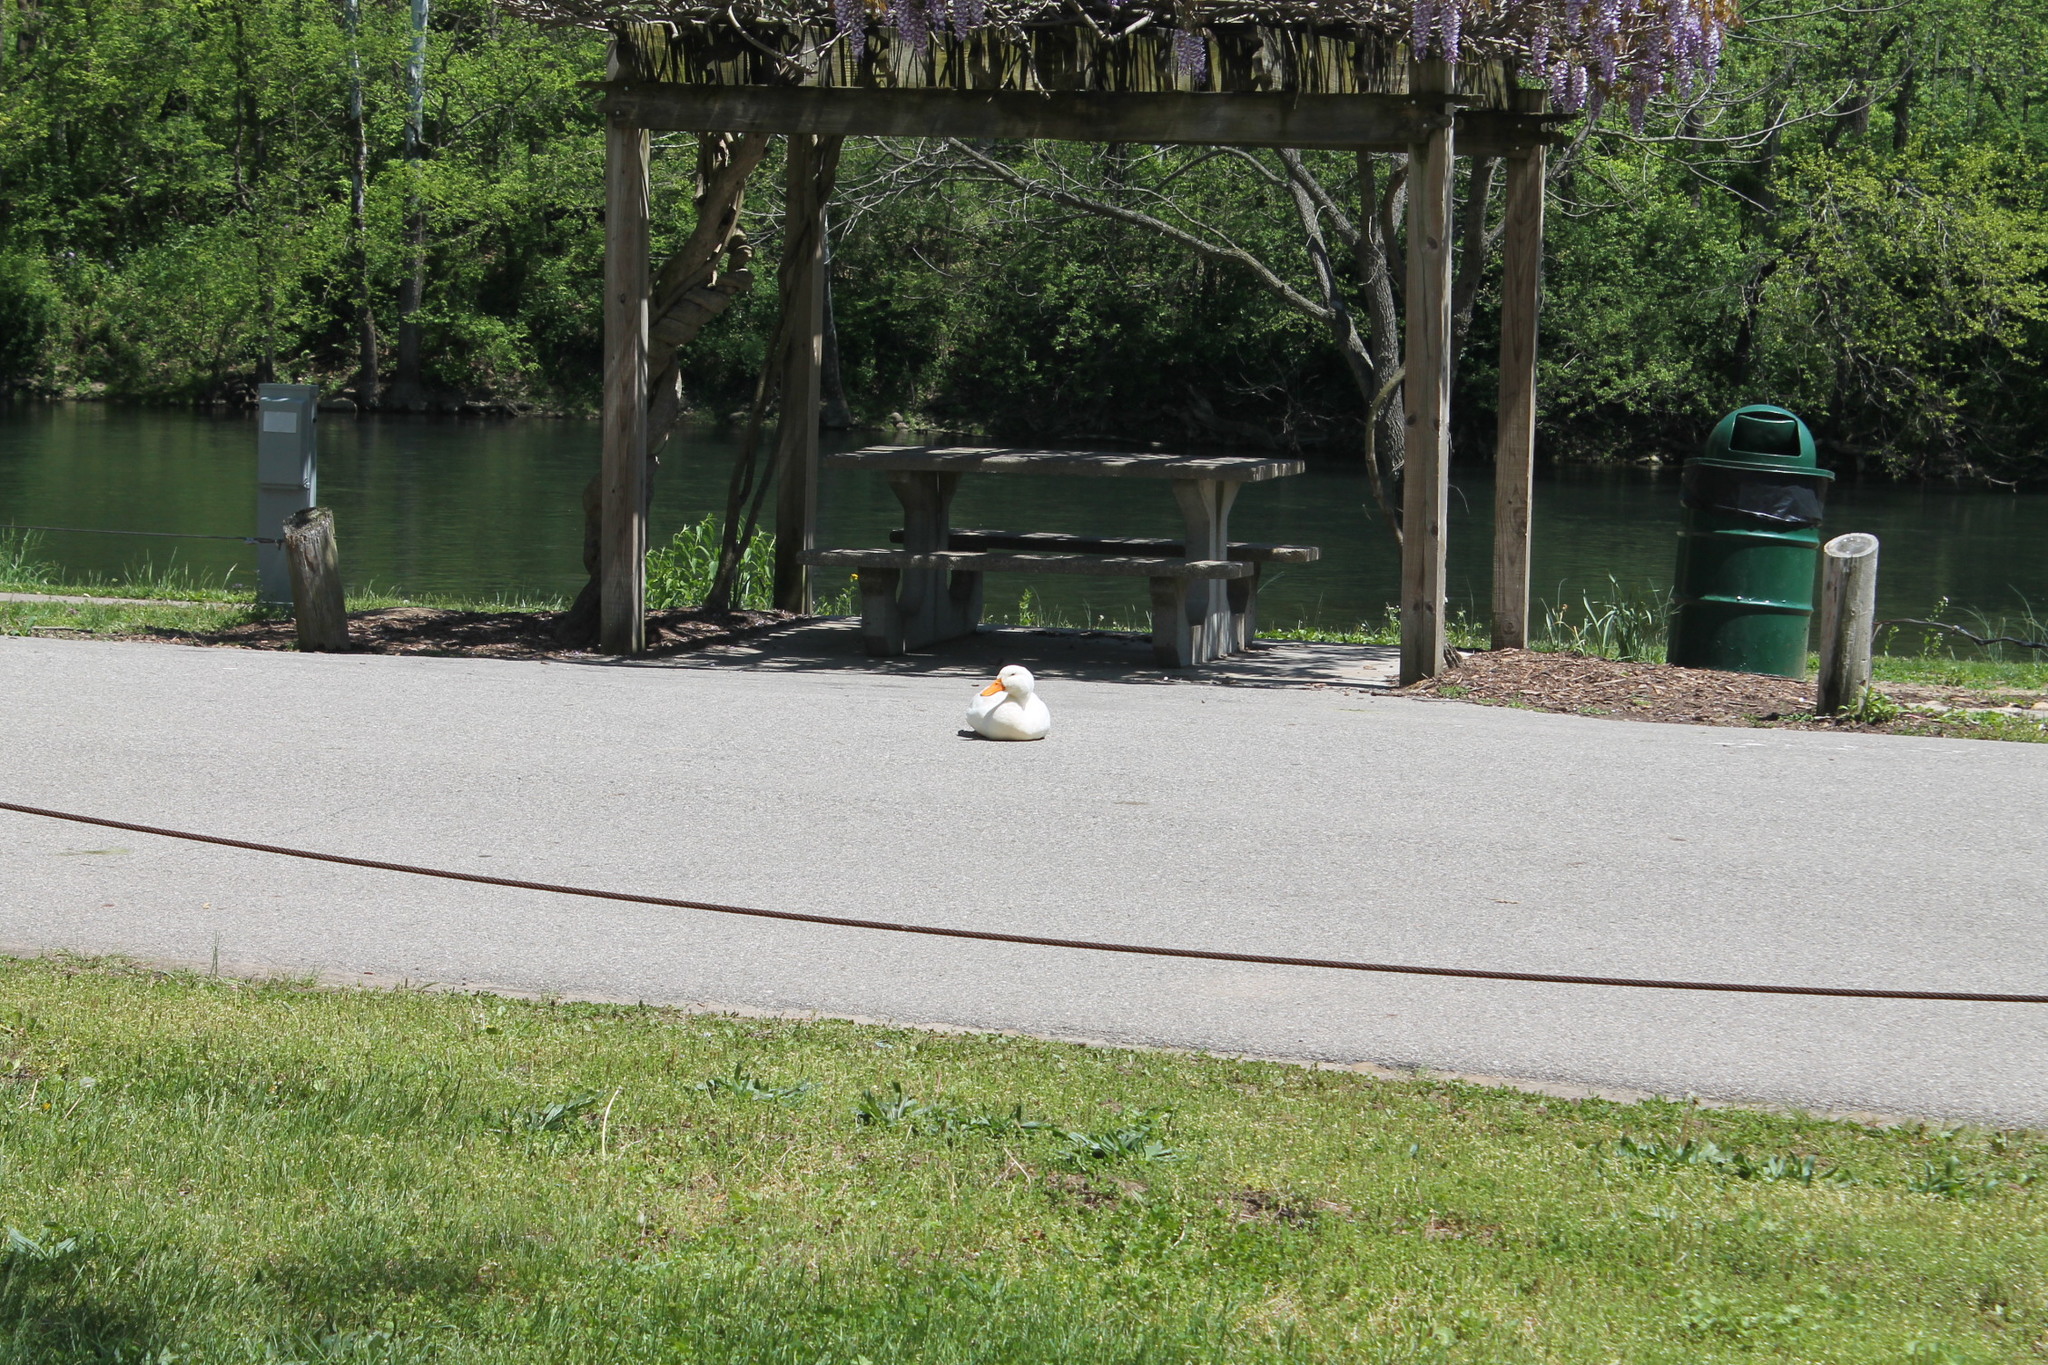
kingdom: Animalia
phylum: Chordata
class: Aves
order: Anseriformes
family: Anatidae
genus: Anas
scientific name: Anas platyrhynchos
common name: Mallard
